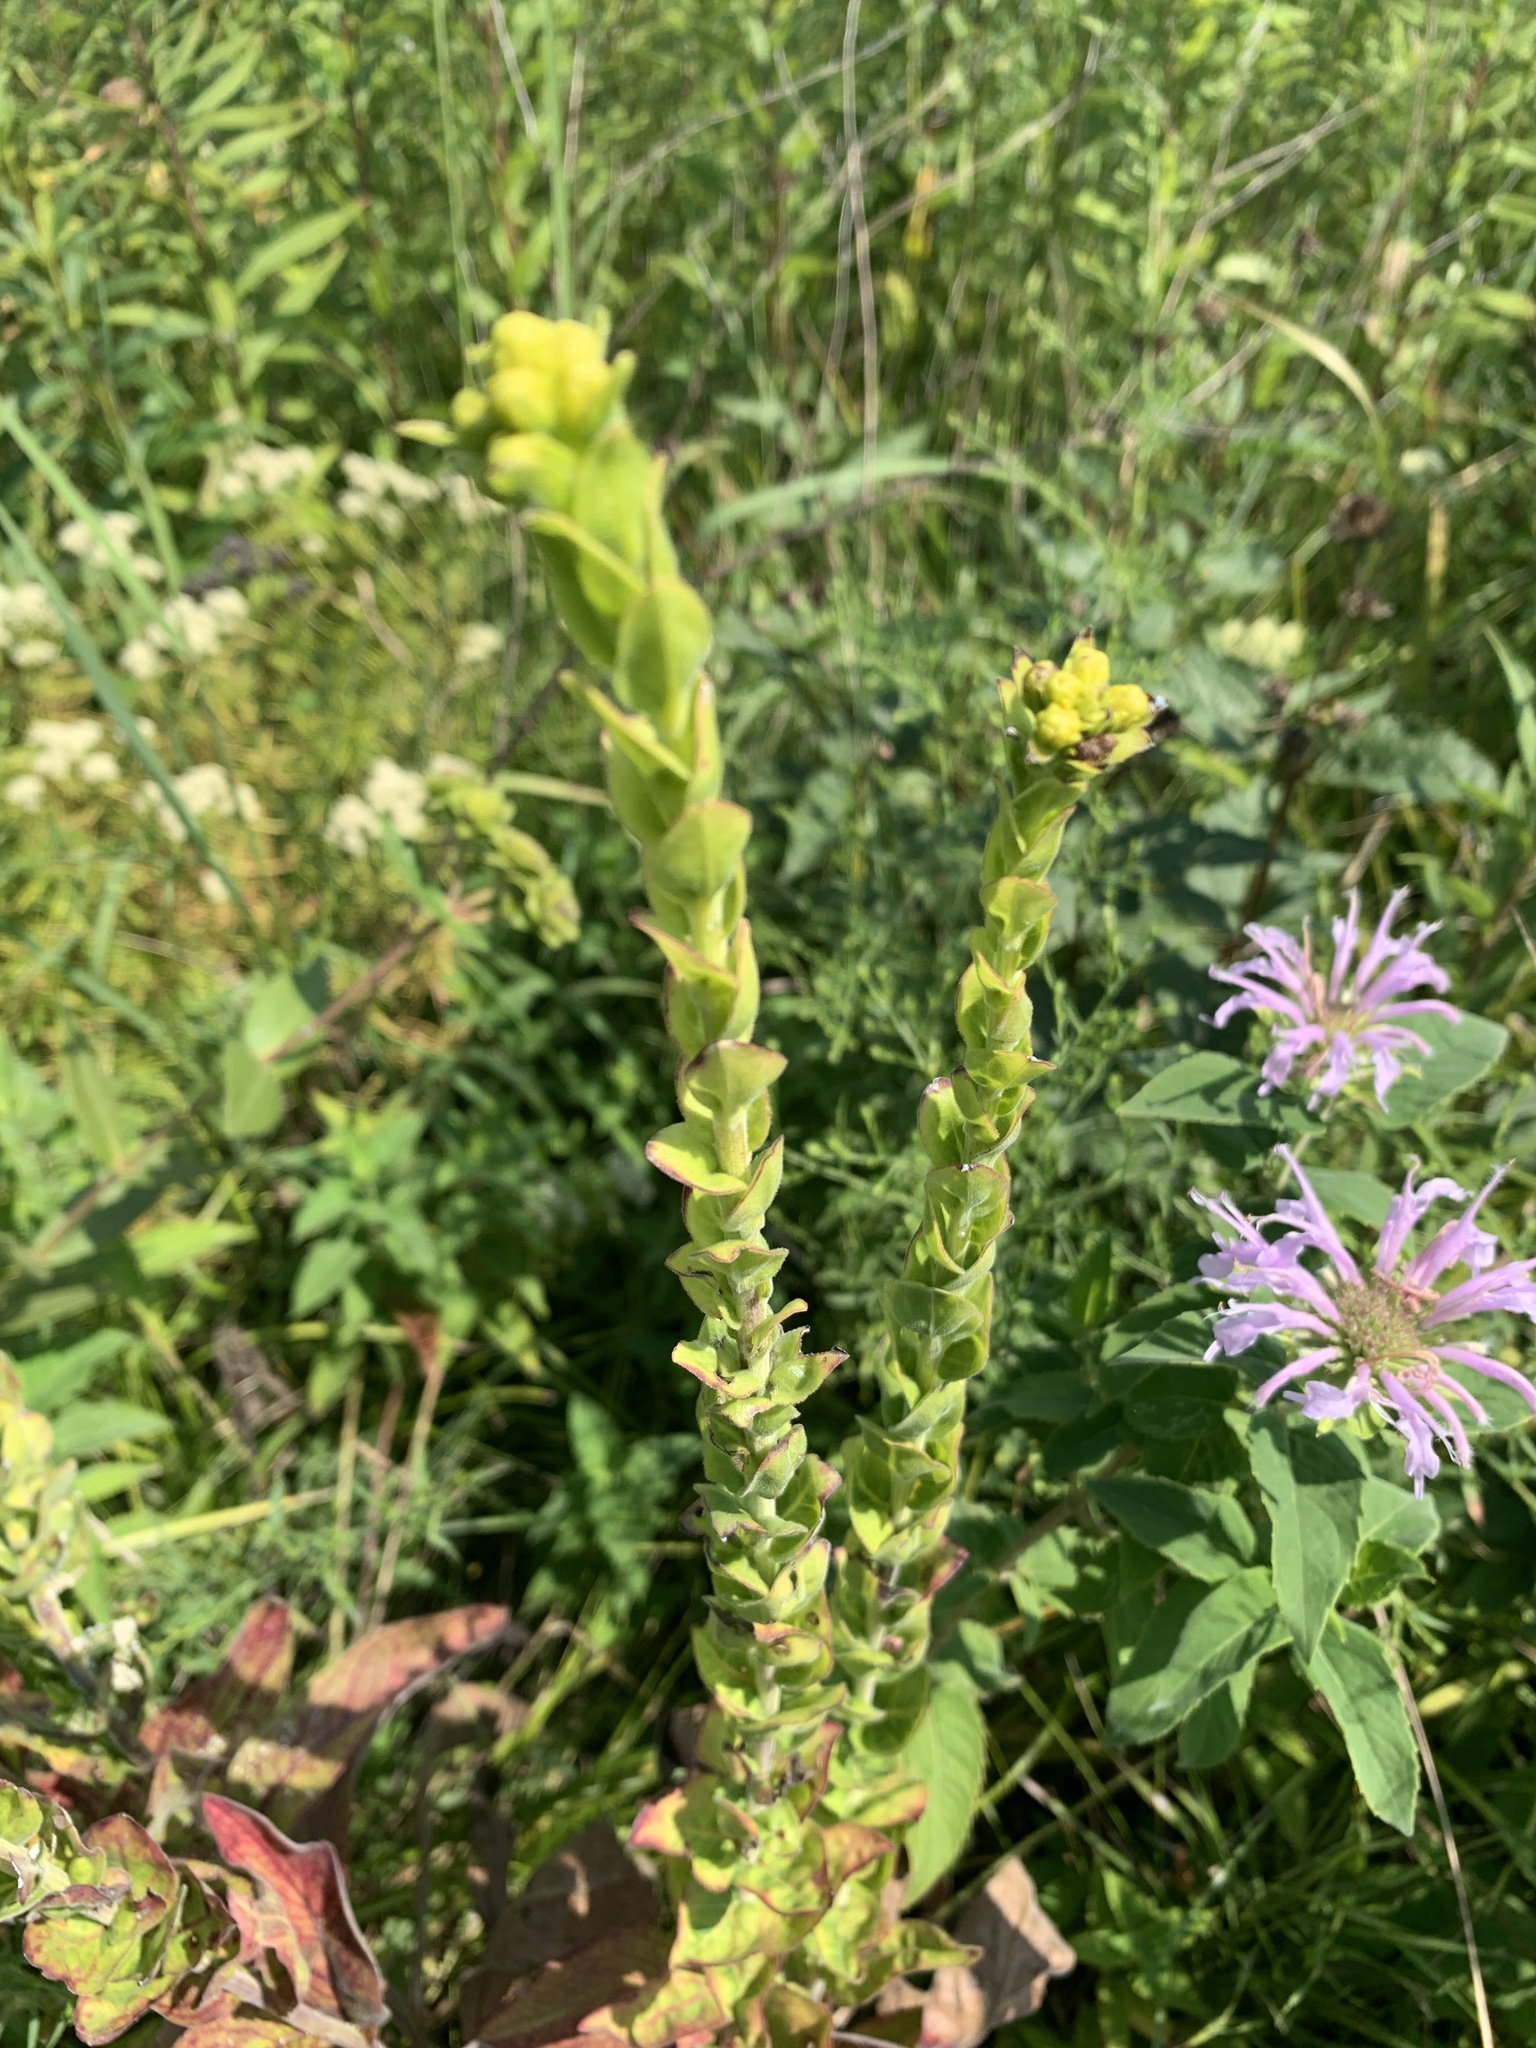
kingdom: Plantae
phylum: Tracheophyta
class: Magnoliopsida
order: Asterales
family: Asteraceae
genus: Solidago
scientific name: Solidago rigida
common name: Rigid goldenrod
